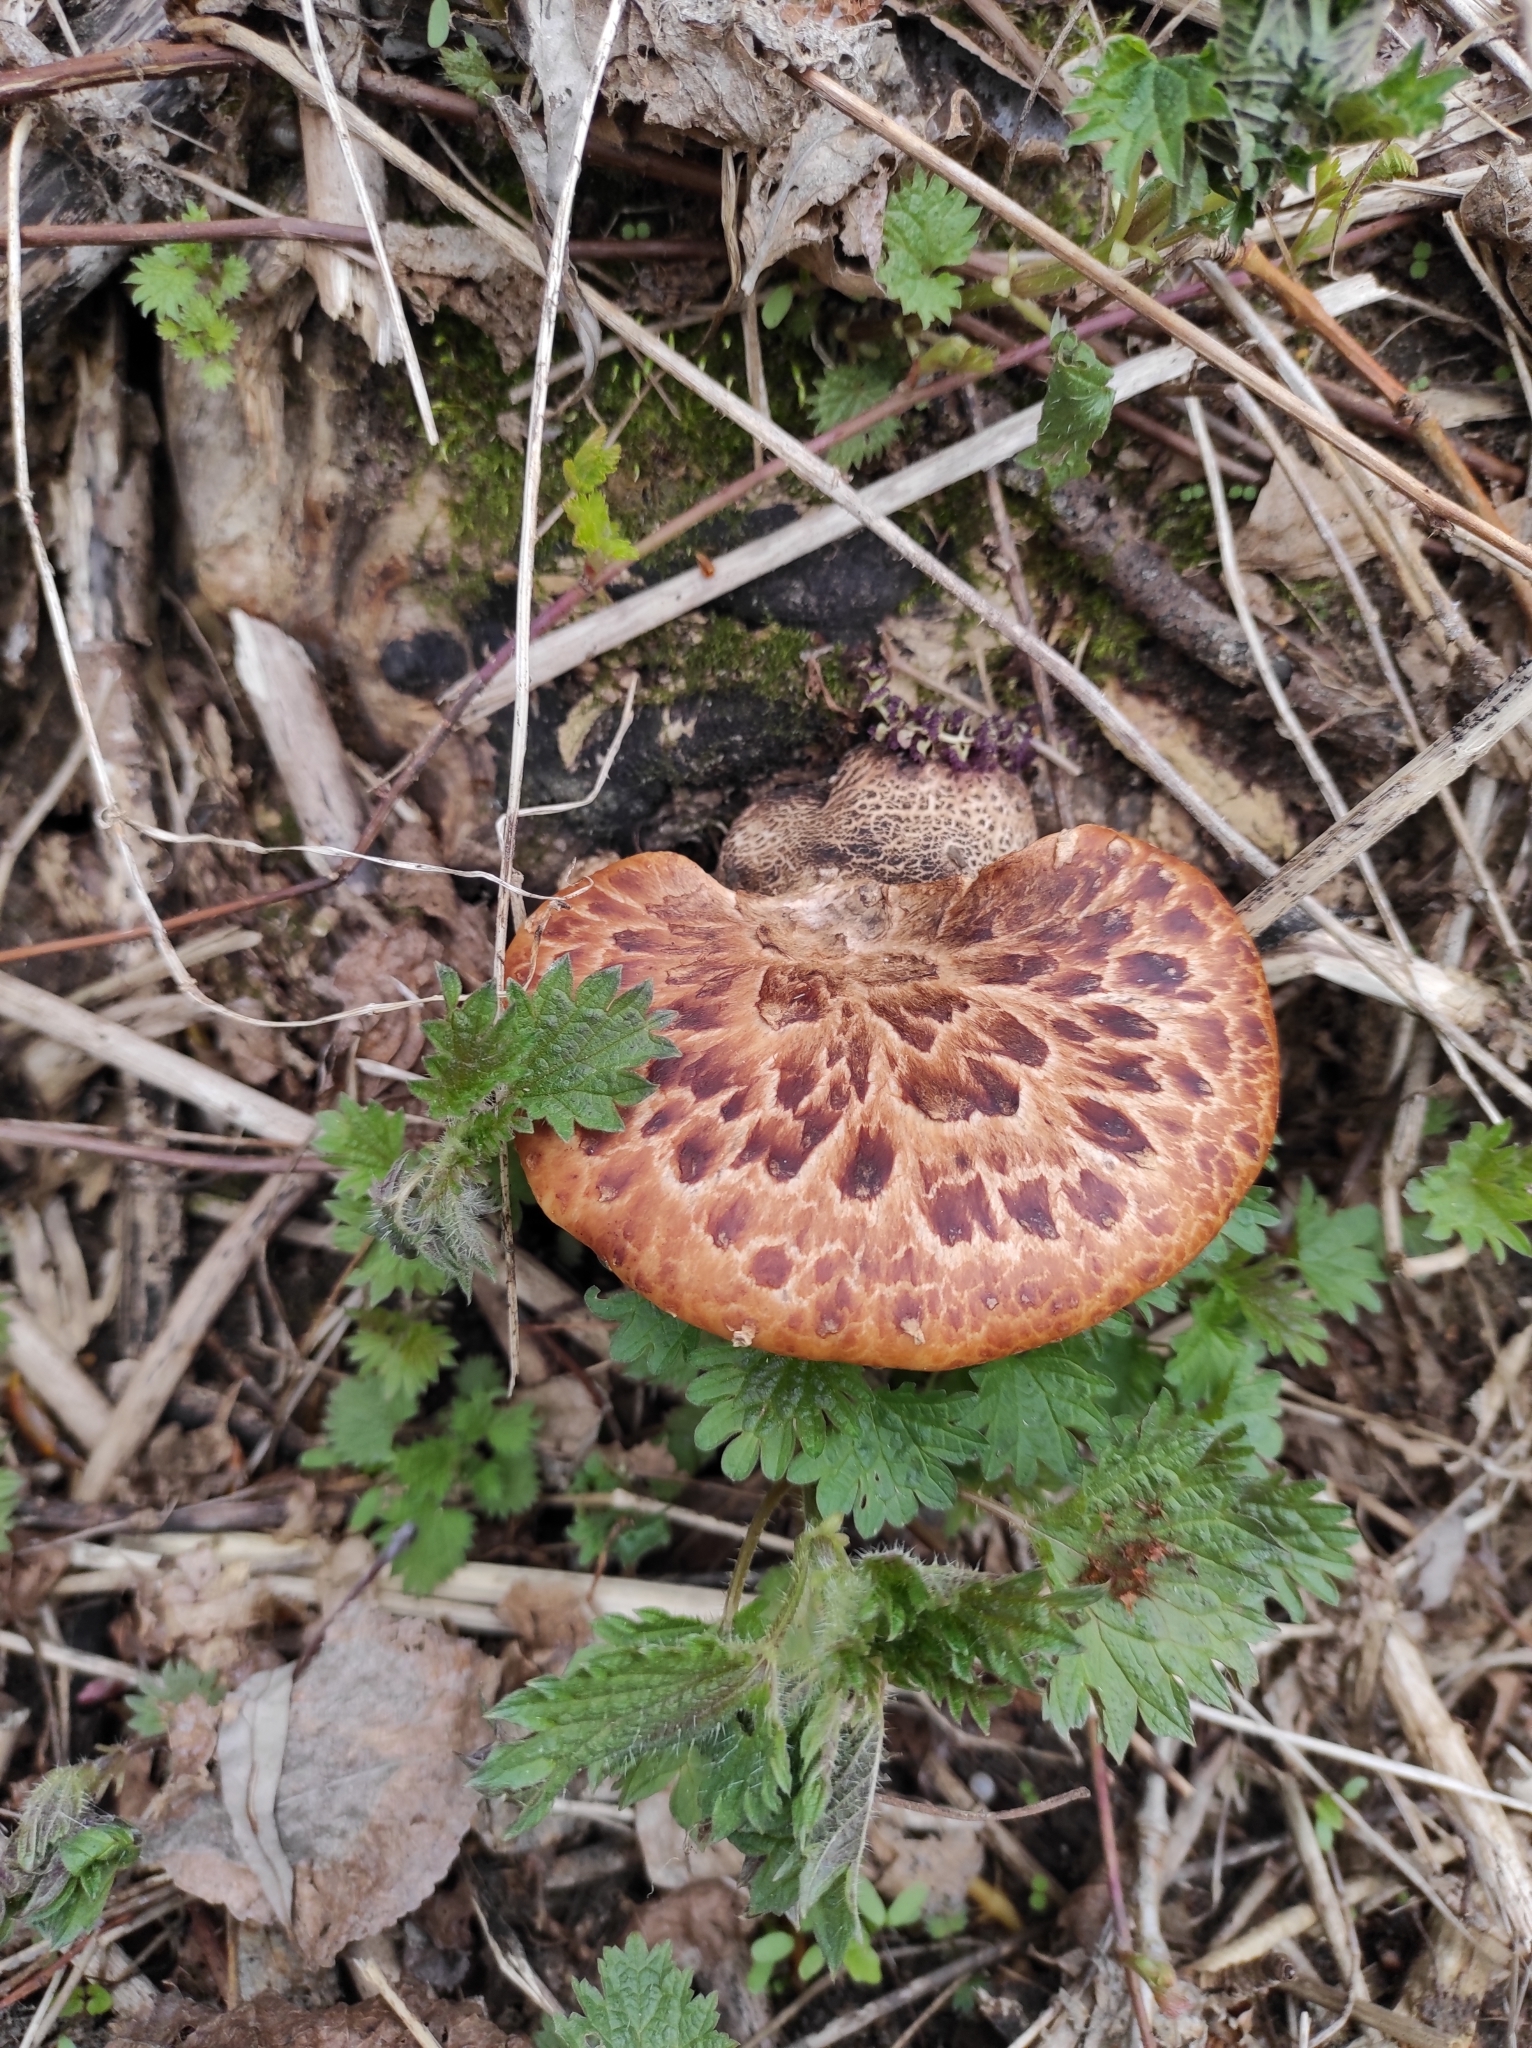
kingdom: Fungi
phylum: Basidiomycota
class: Agaricomycetes
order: Polyporales
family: Polyporaceae
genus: Cerioporus
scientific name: Cerioporus squamosus
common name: Dryad's saddle
